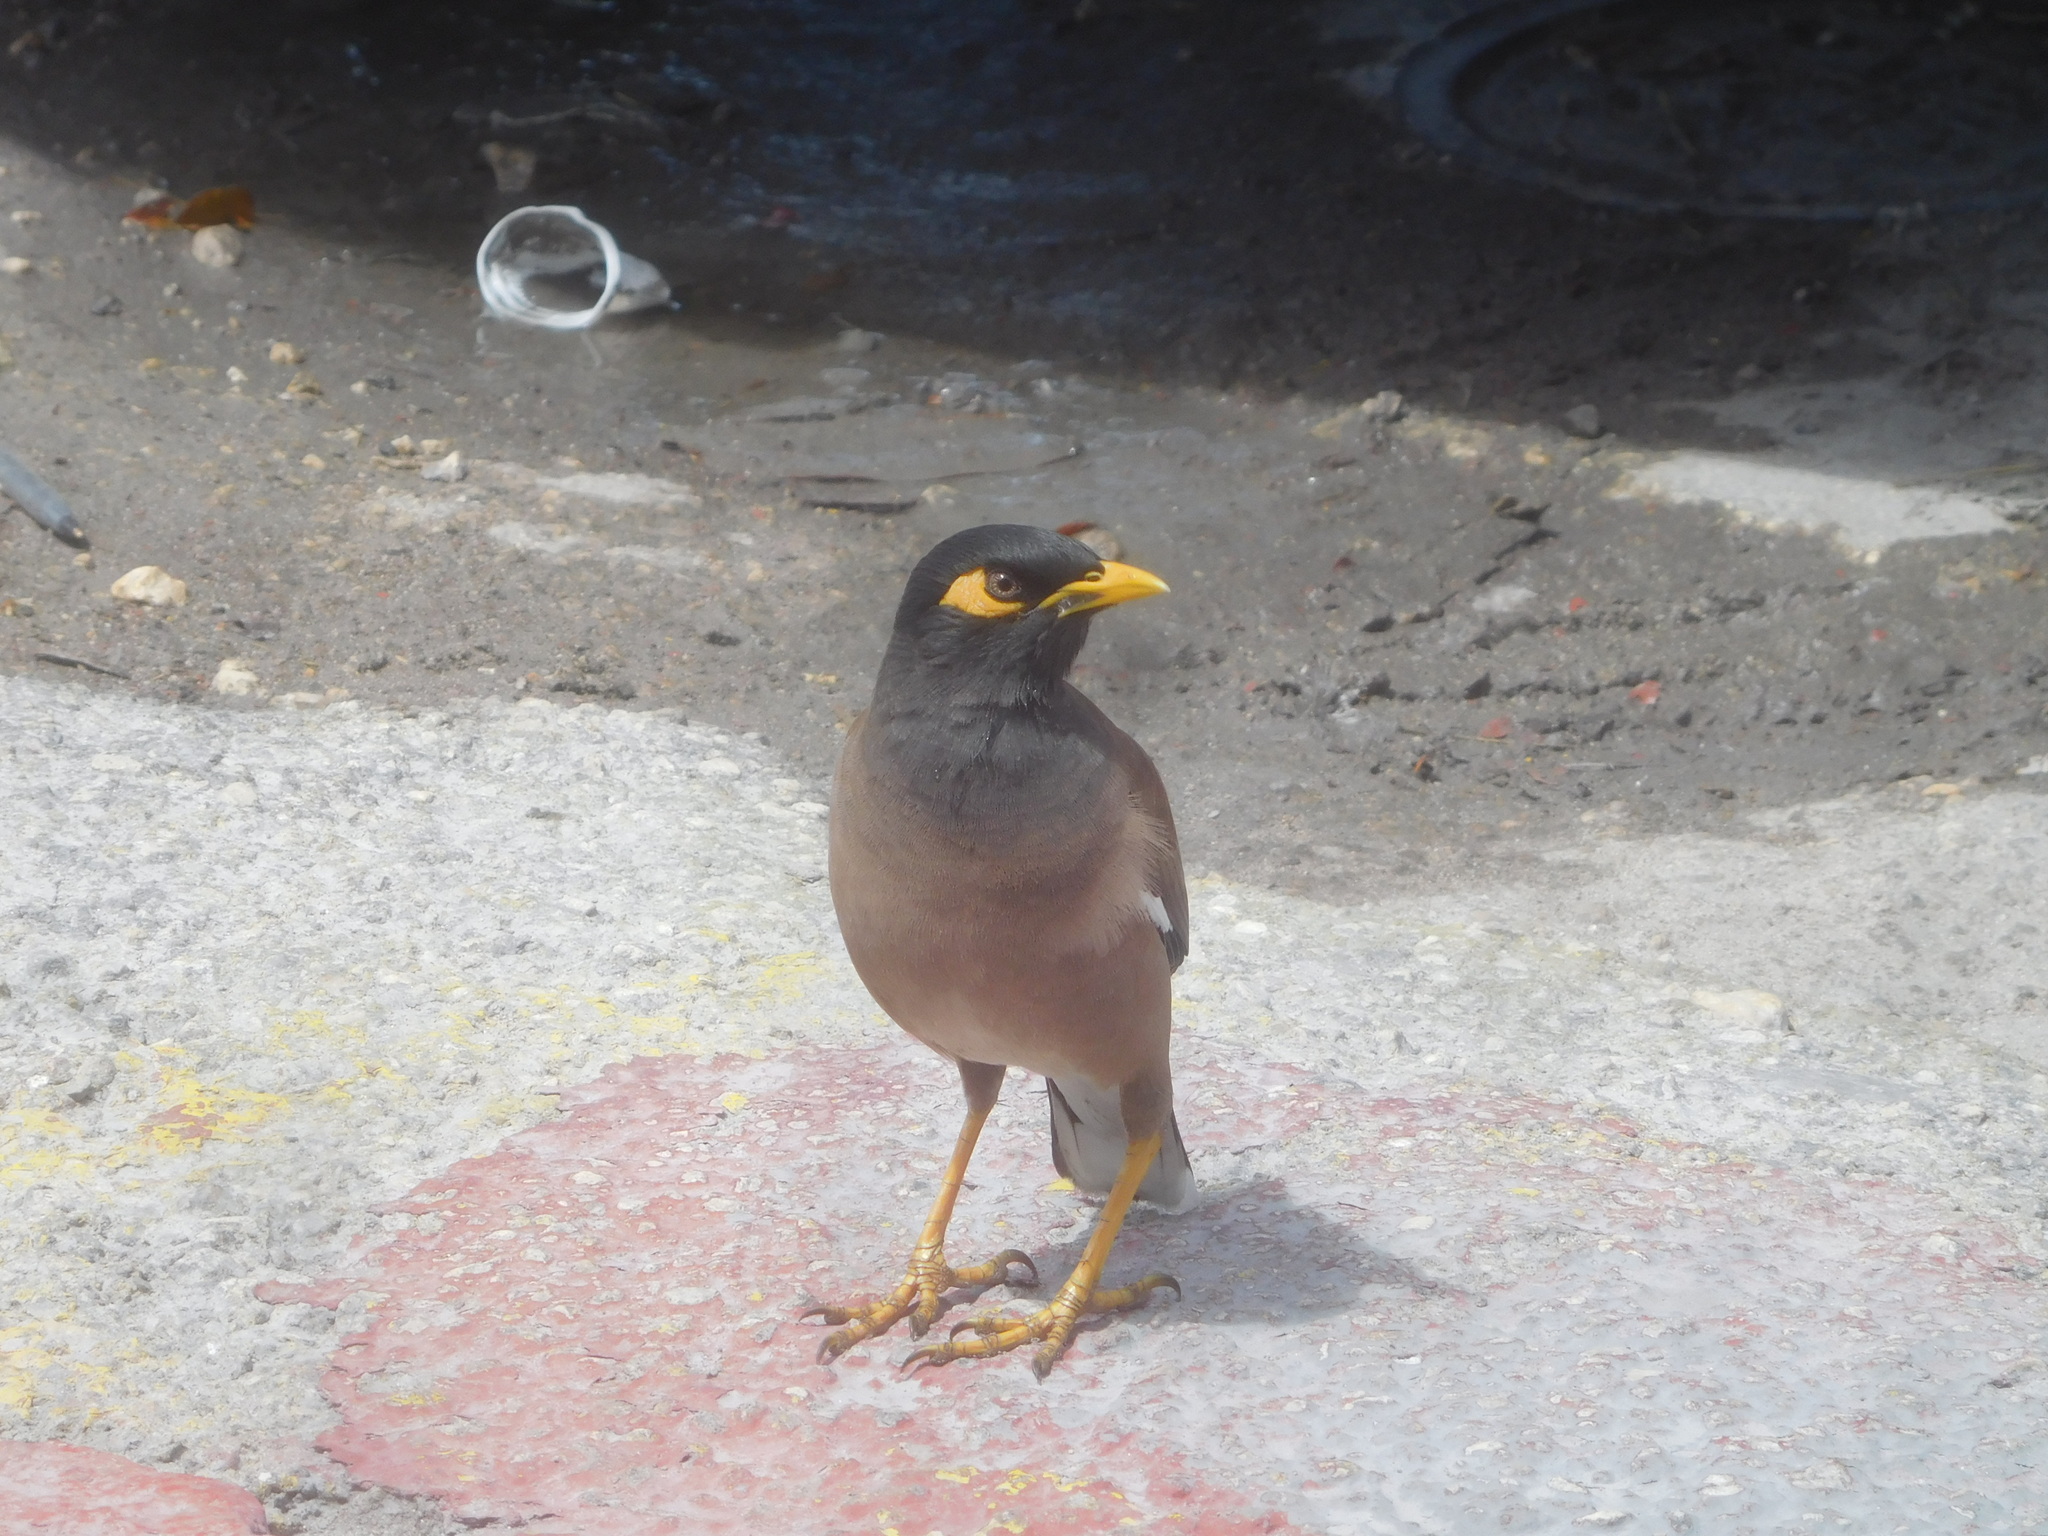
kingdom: Animalia
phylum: Chordata
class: Aves
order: Passeriformes
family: Sturnidae
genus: Acridotheres
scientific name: Acridotheres tristis
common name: Common myna
